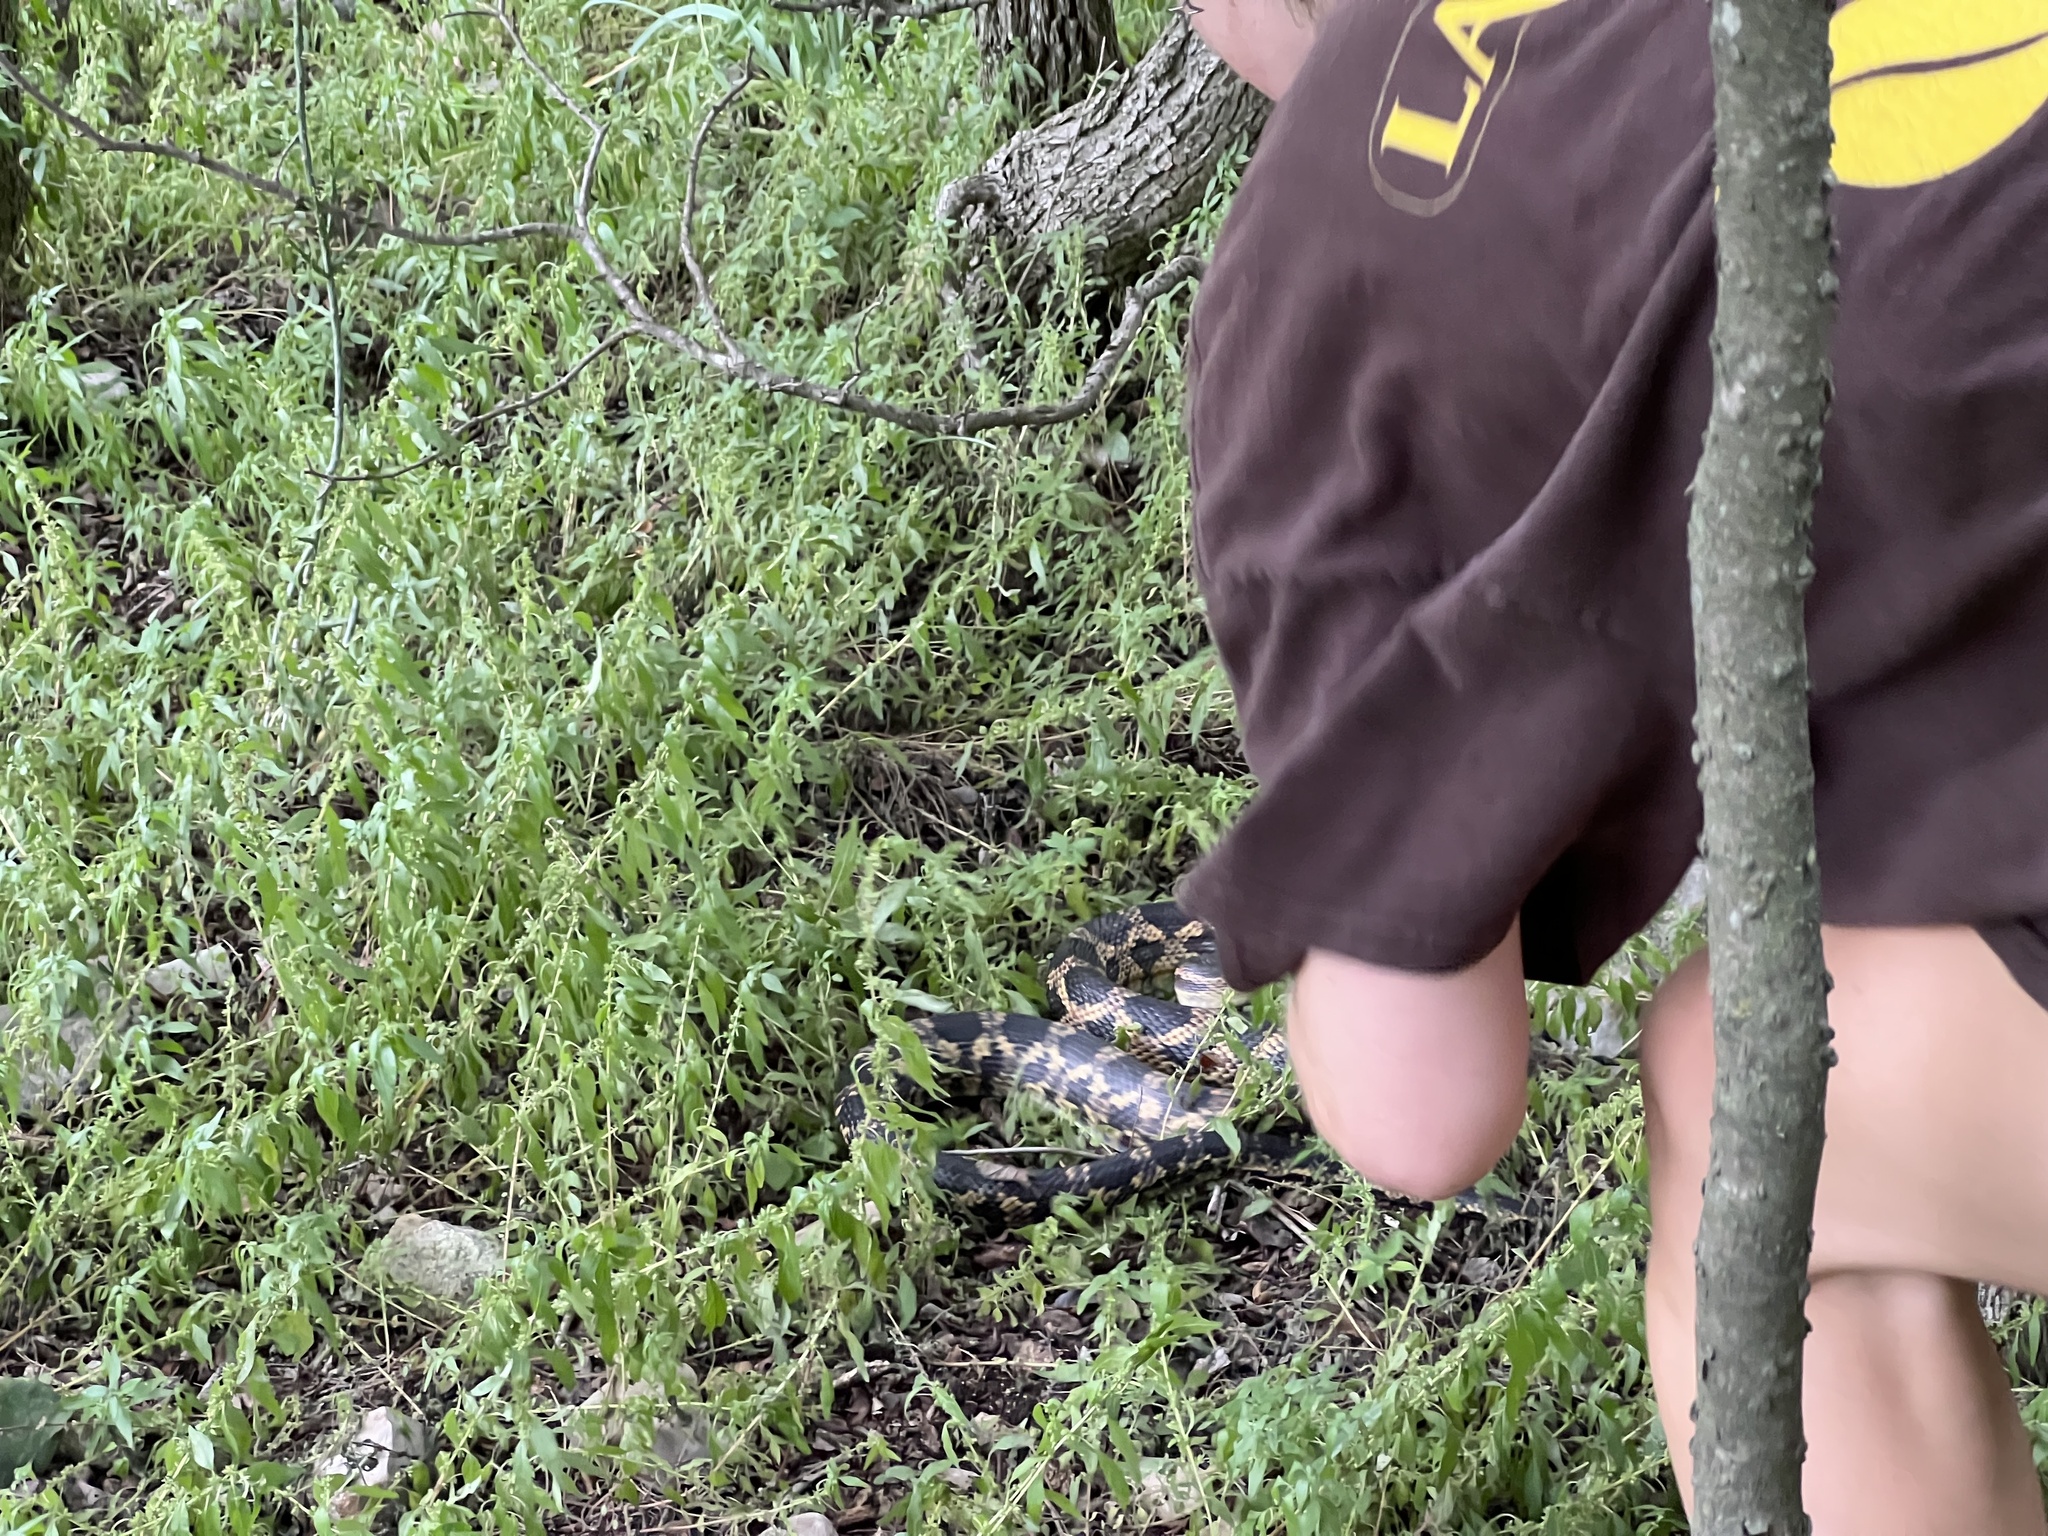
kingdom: Animalia
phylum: Chordata
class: Squamata
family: Colubridae
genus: Pantherophis
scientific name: Pantherophis obsoletus
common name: Black rat snake
